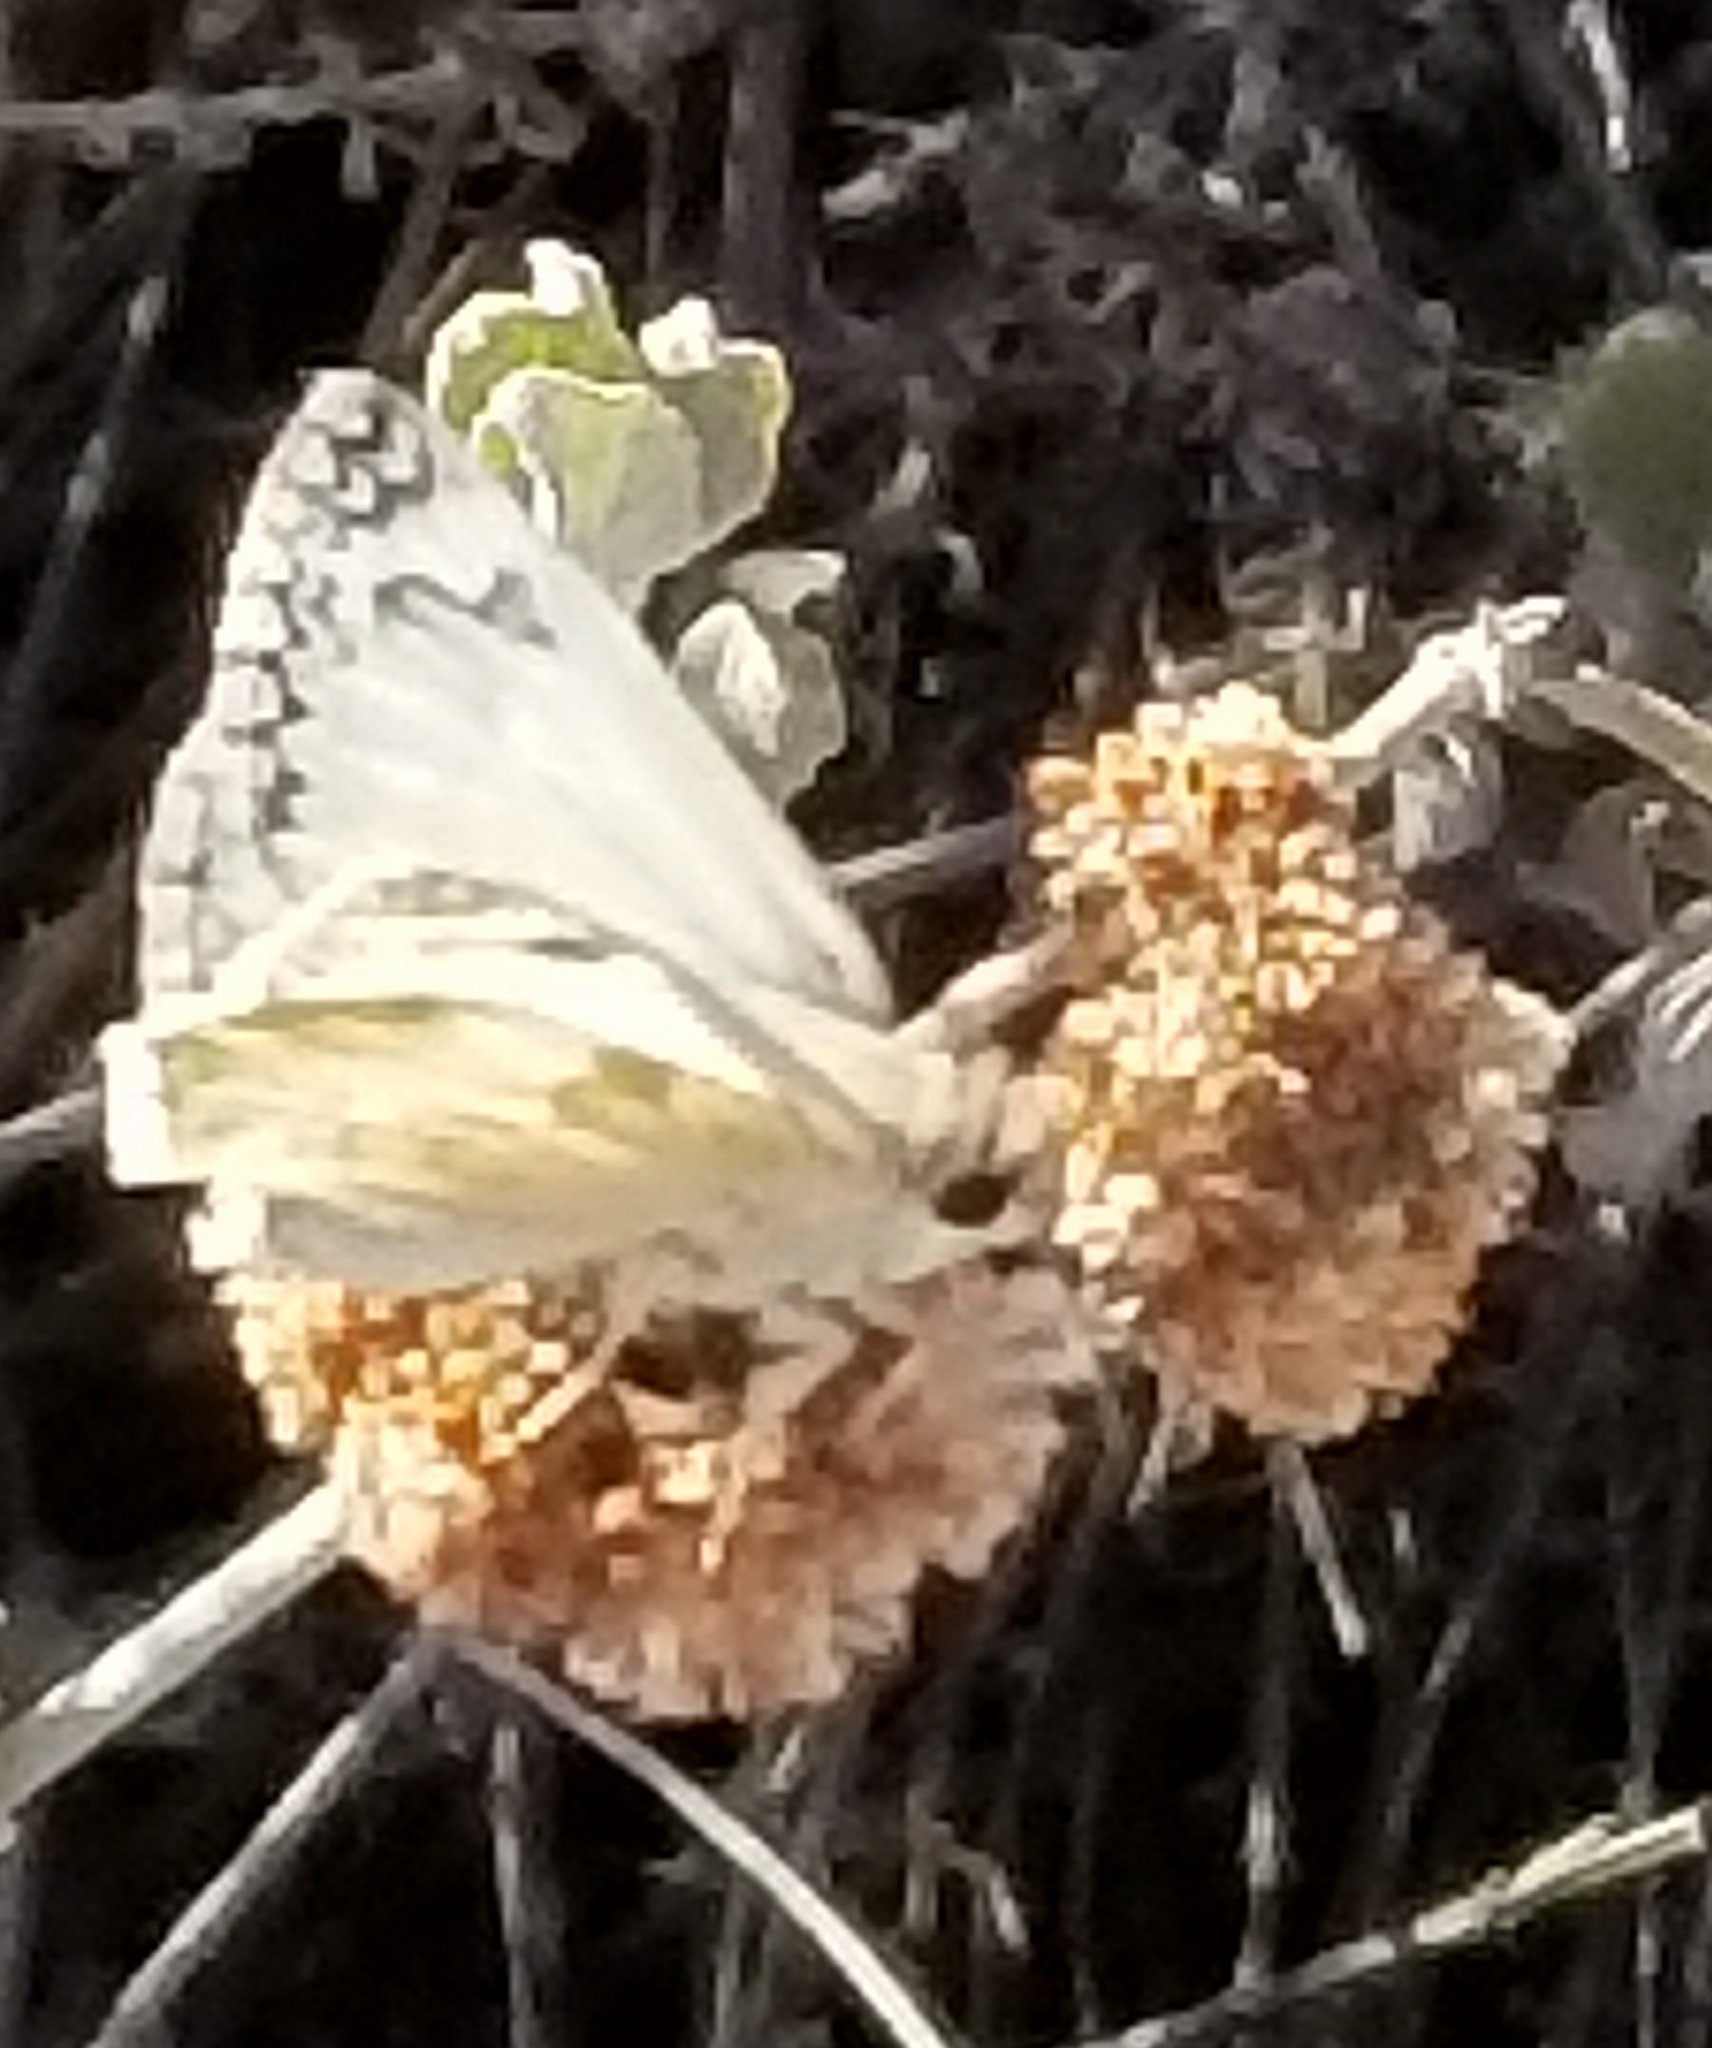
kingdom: Animalia
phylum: Arthropoda
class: Insecta
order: Lepidoptera
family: Hesperiidae
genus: Heliopetes
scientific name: Heliopetes ericetorum
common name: Northern white-skipper
